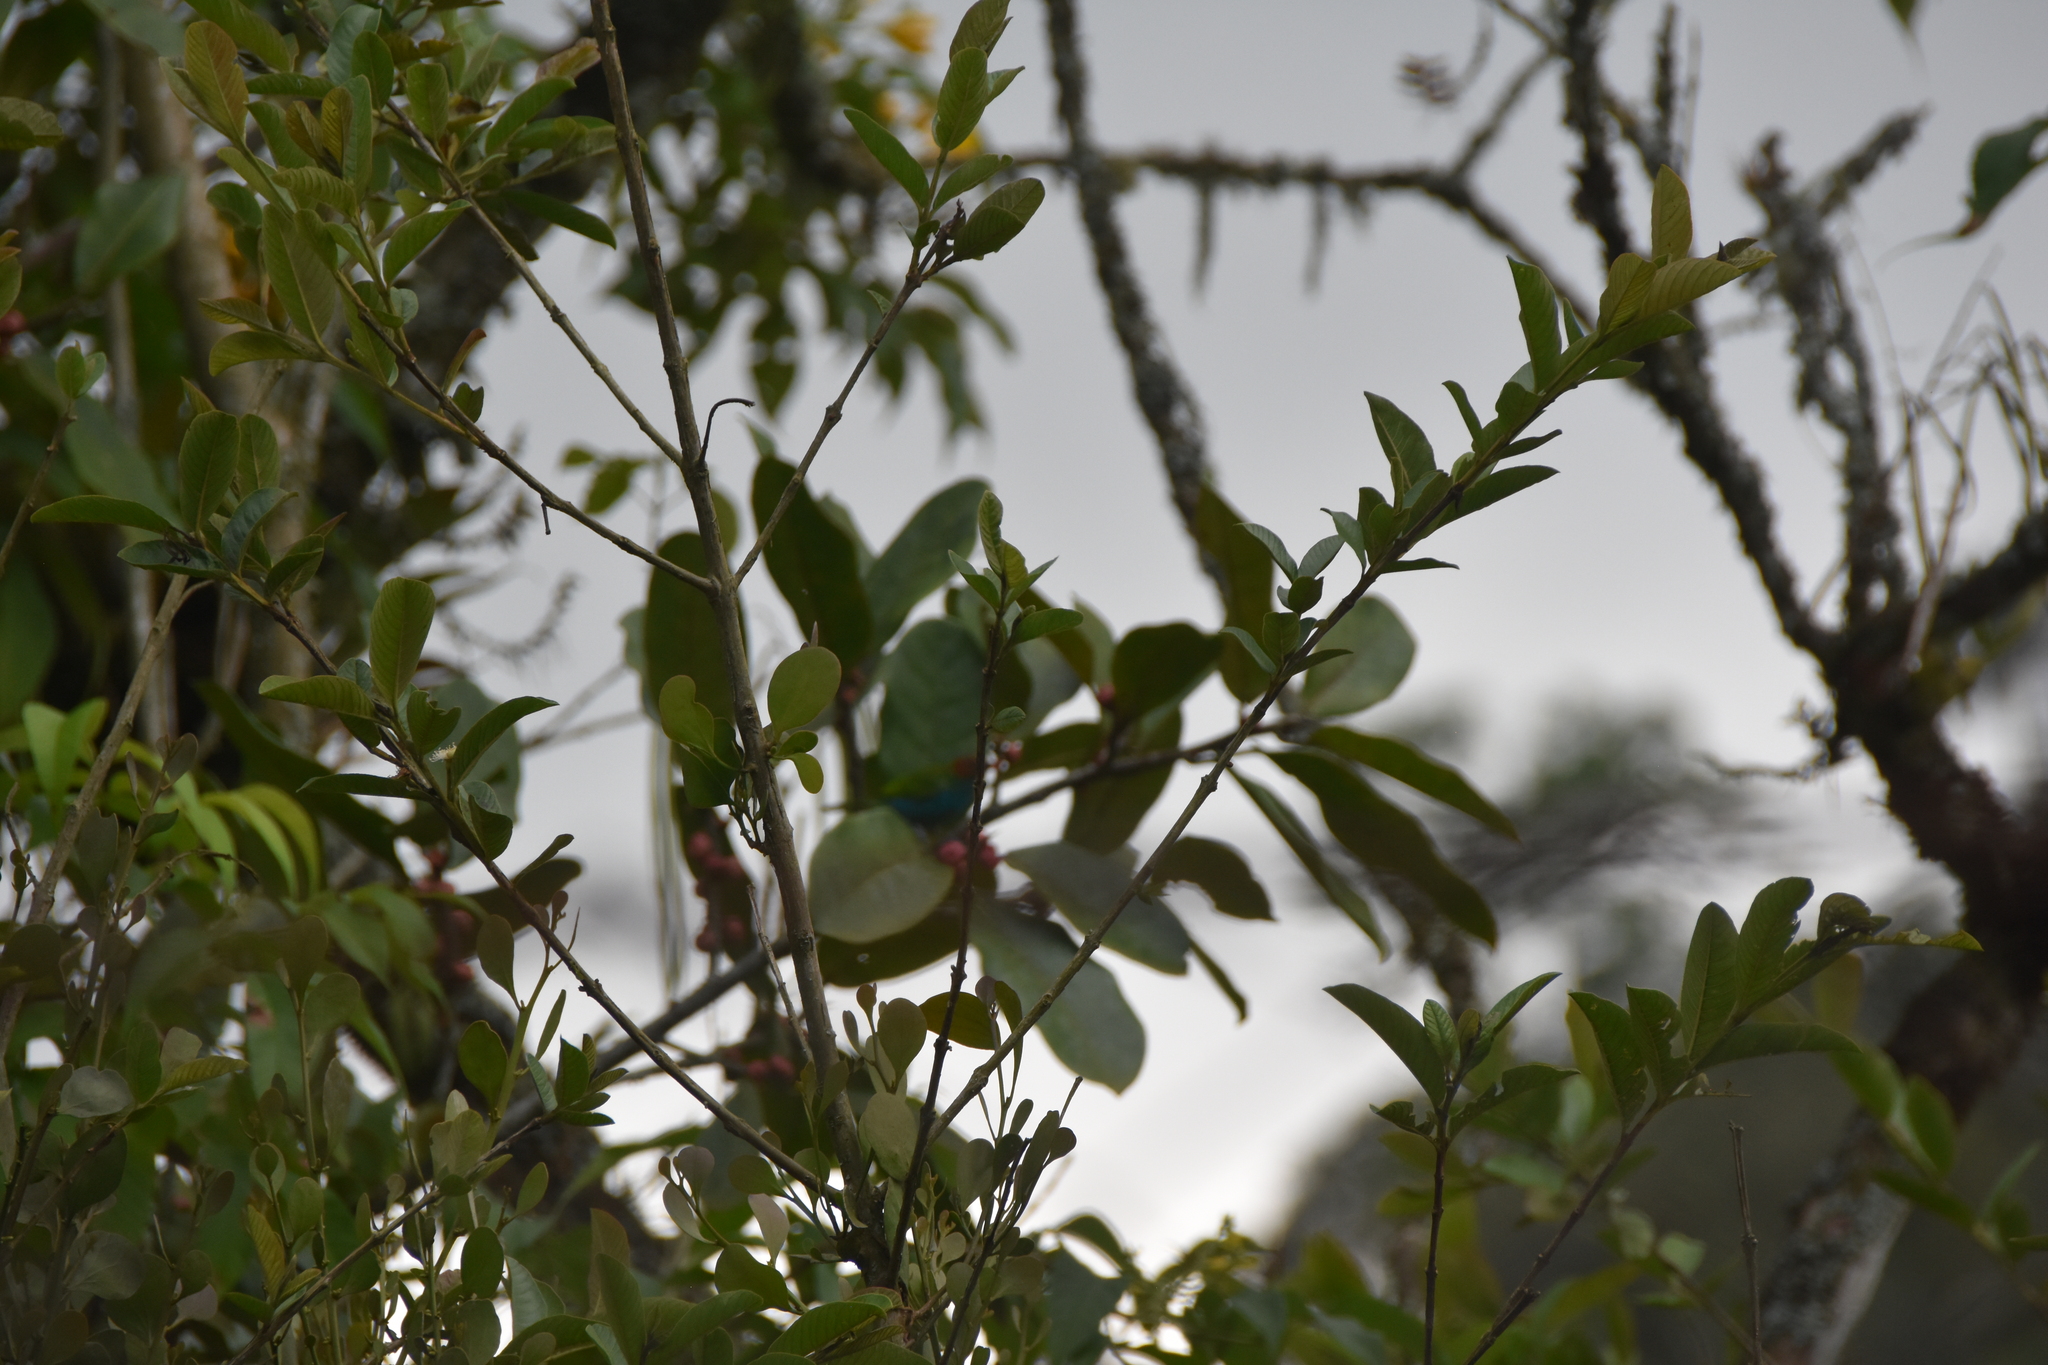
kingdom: Animalia
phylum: Chordata
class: Aves
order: Passeriformes
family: Thraupidae
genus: Tangara
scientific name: Tangara gyrola
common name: Bay-headed tanager
